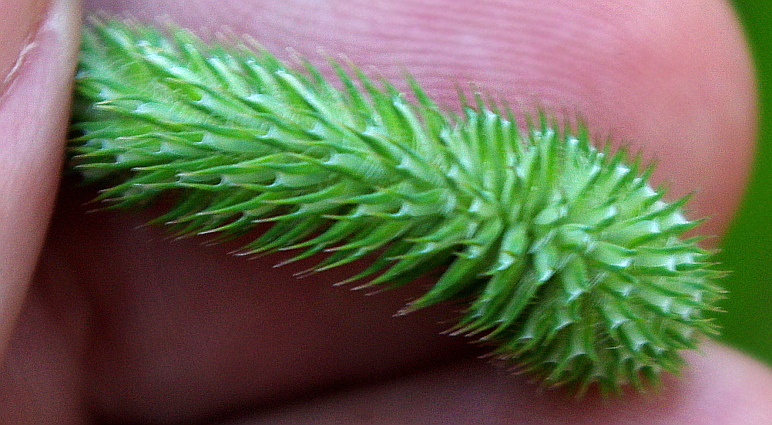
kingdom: Plantae
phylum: Tracheophyta
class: Liliopsida
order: Poales
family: Poaceae
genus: Phleum
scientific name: Phleum pratense
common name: Timothy grass
